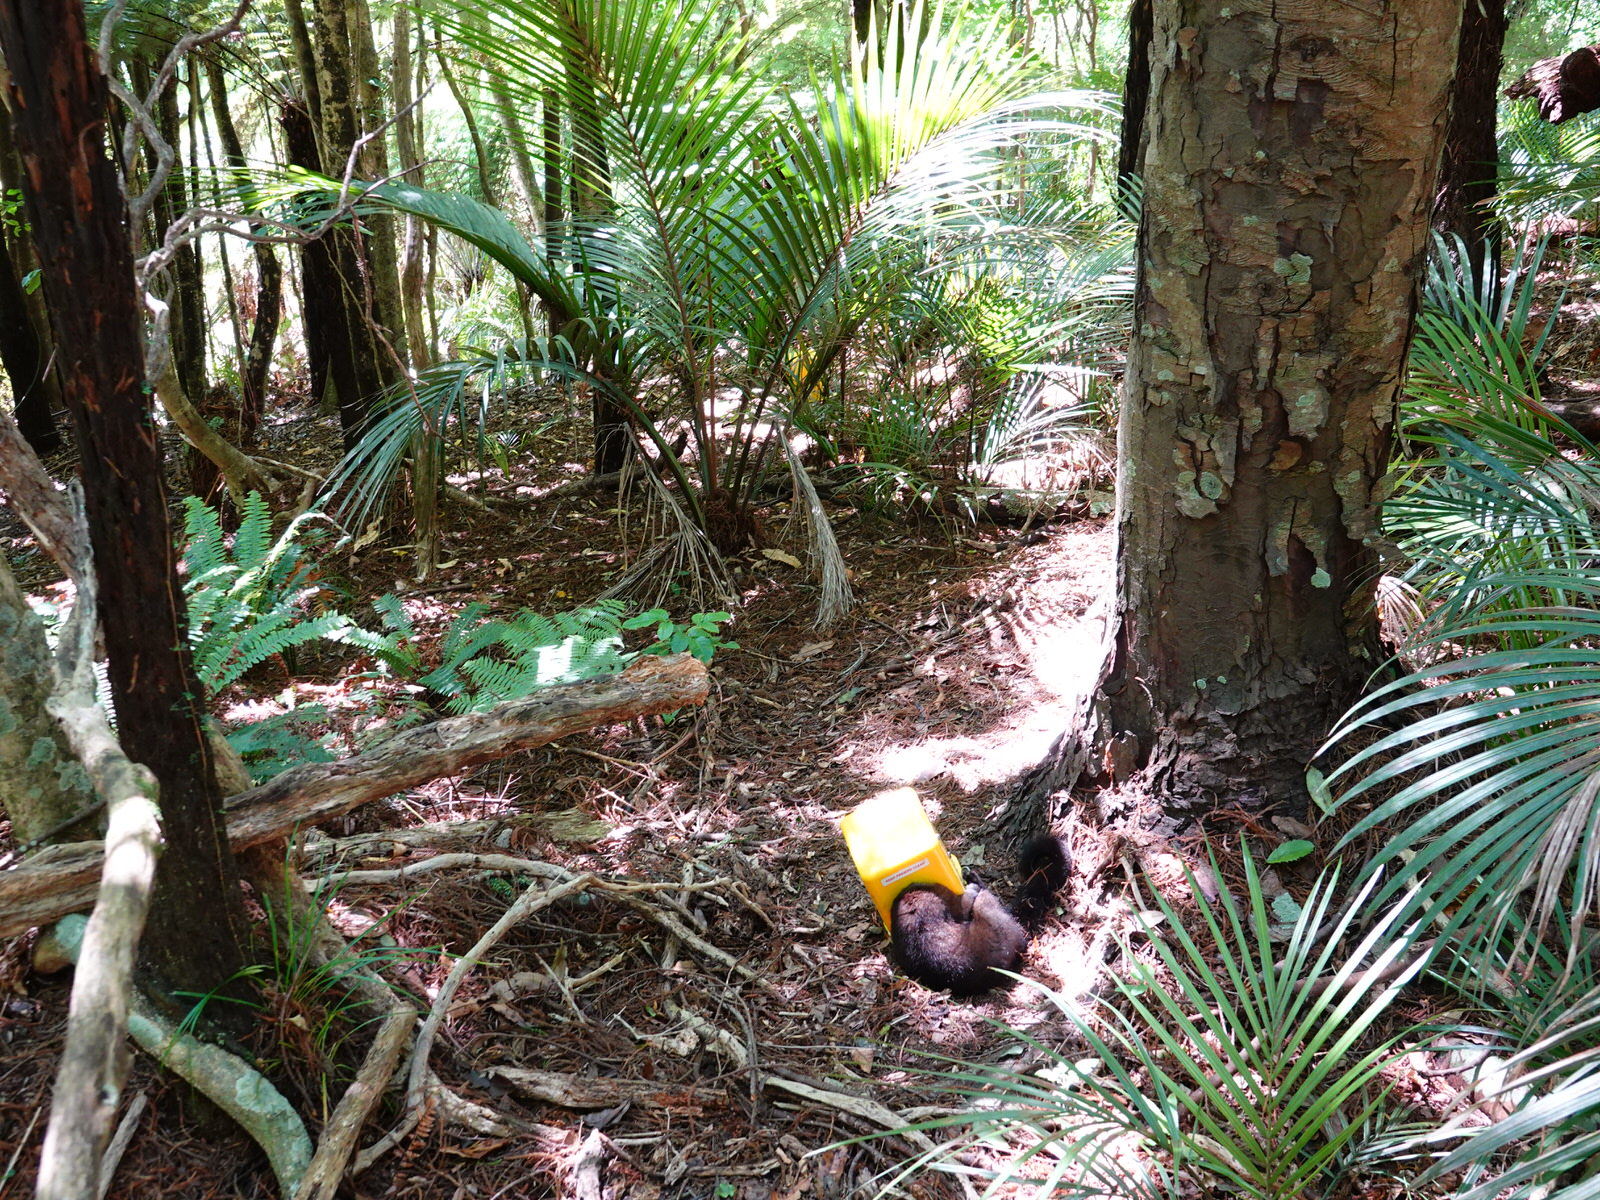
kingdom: Animalia
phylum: Chordata
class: Mammalia
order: Diprotodontia
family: Phalangeridae
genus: Trichosurus
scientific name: Trichosurus vulpecula
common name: Common brushtail
